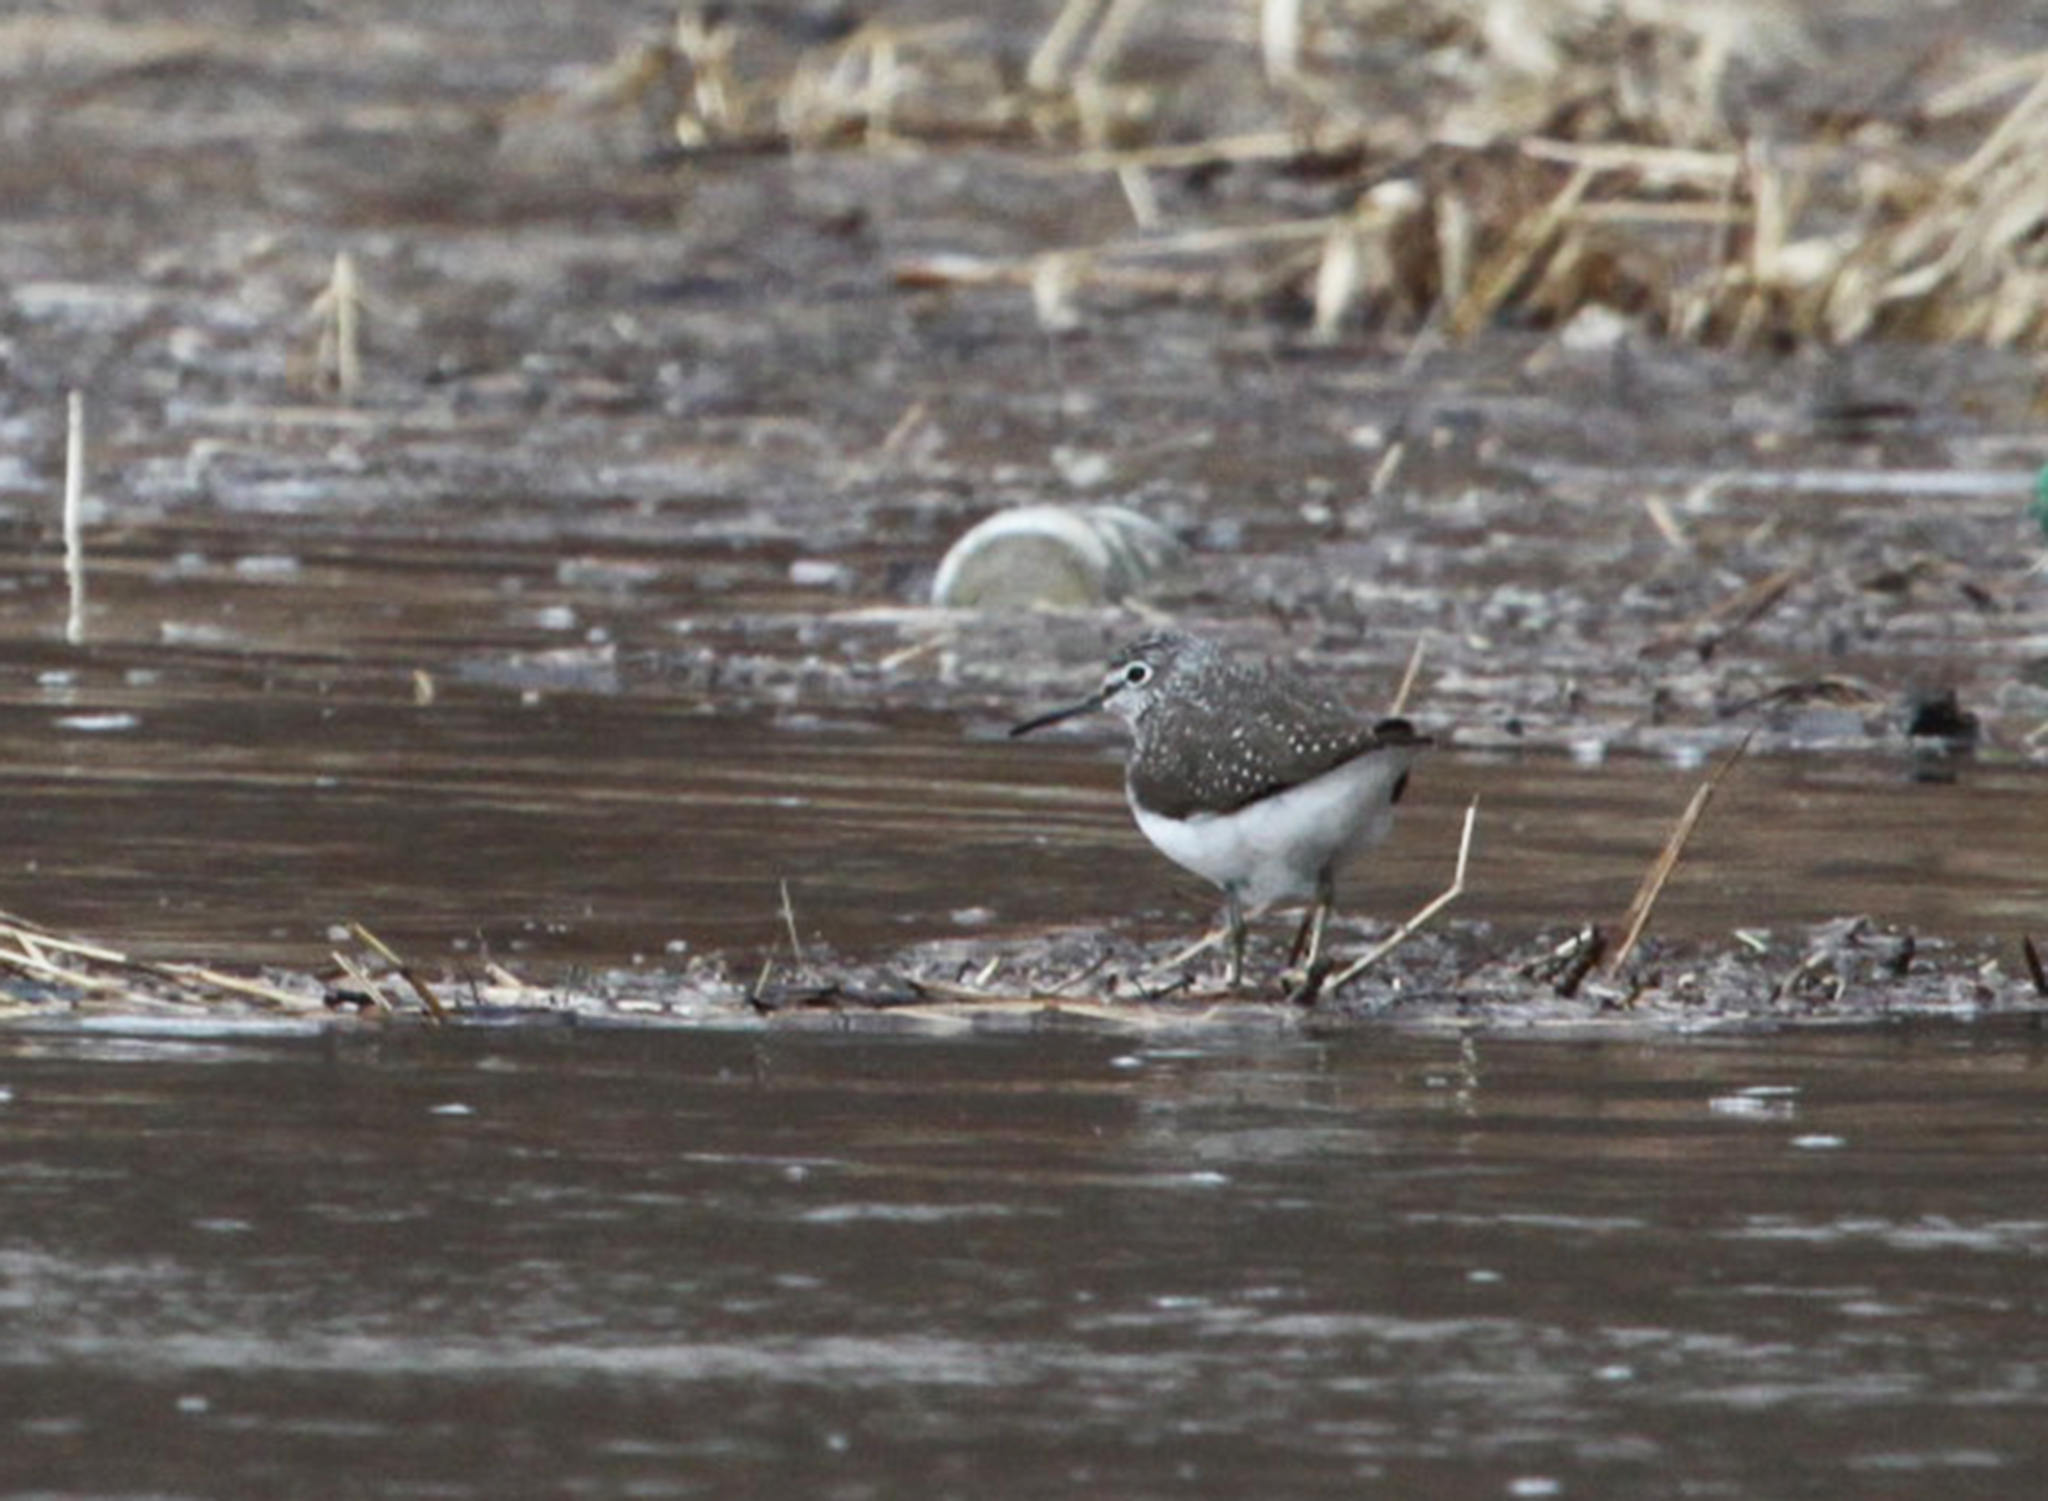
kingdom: Animalia
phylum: Chordata
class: Aves
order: Charadriiformes
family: Scolopacidae
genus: Tringa
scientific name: Tringa ochropus
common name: Green sandpiper
